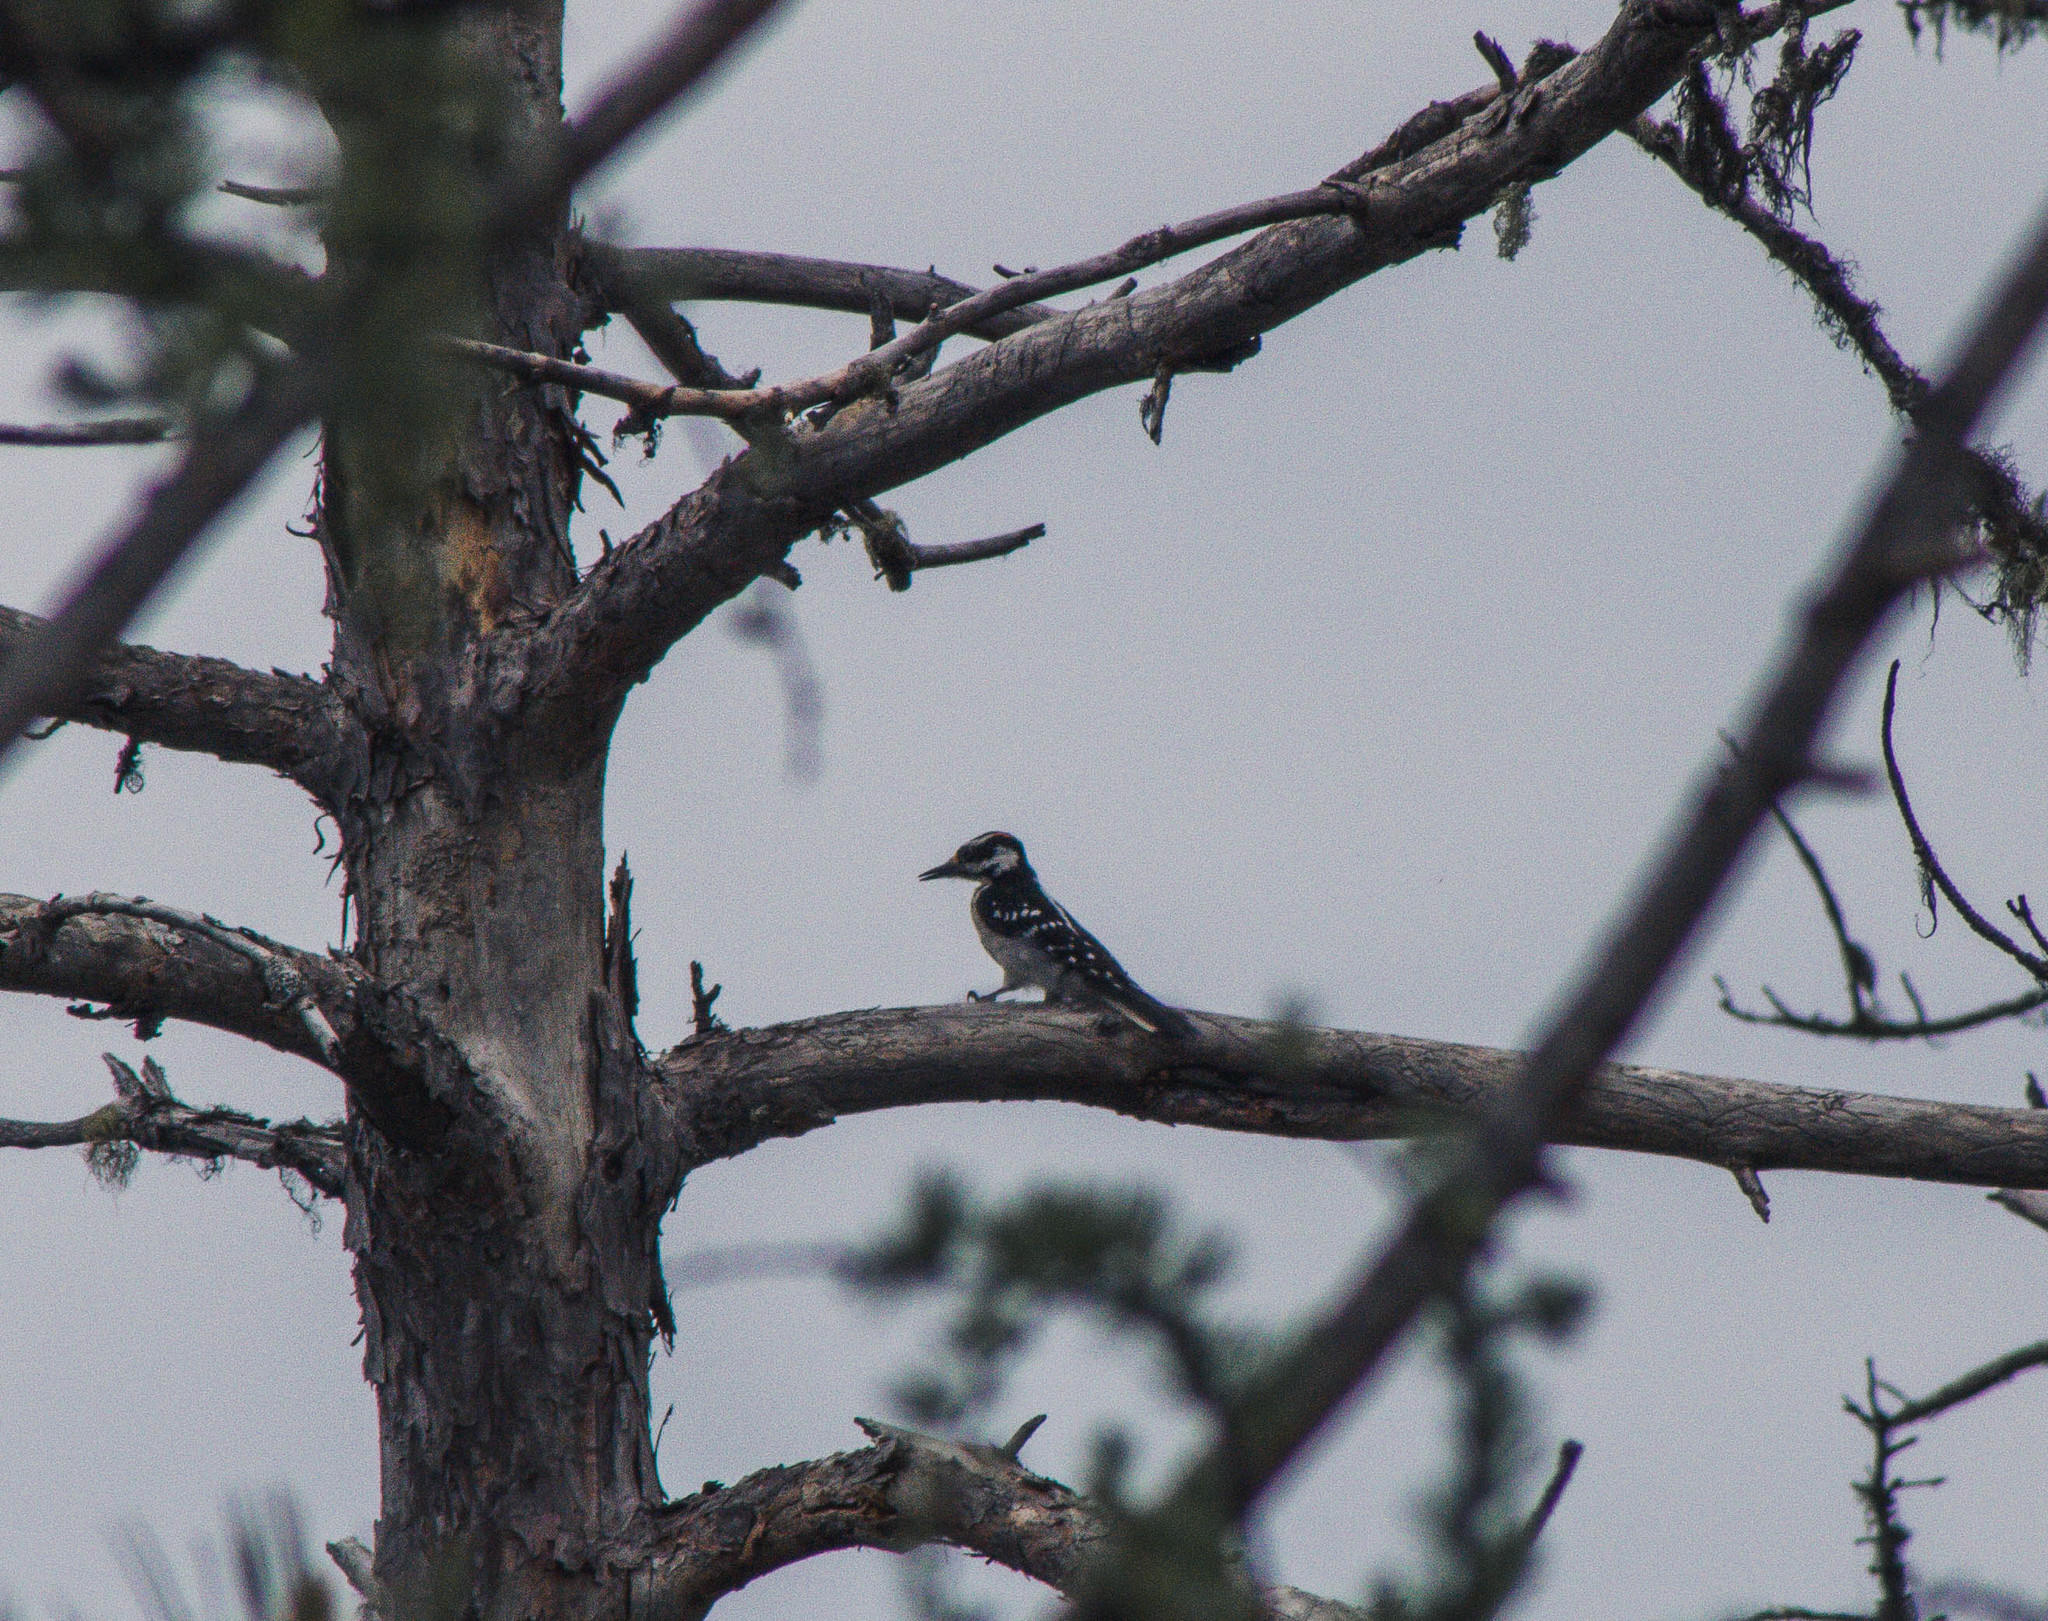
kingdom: Animalia
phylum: Chordata
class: Aves
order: Piciformes
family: Picidae
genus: Leuconotopicus
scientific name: Leuconotopicus villosus
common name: Hairy woodpecker
